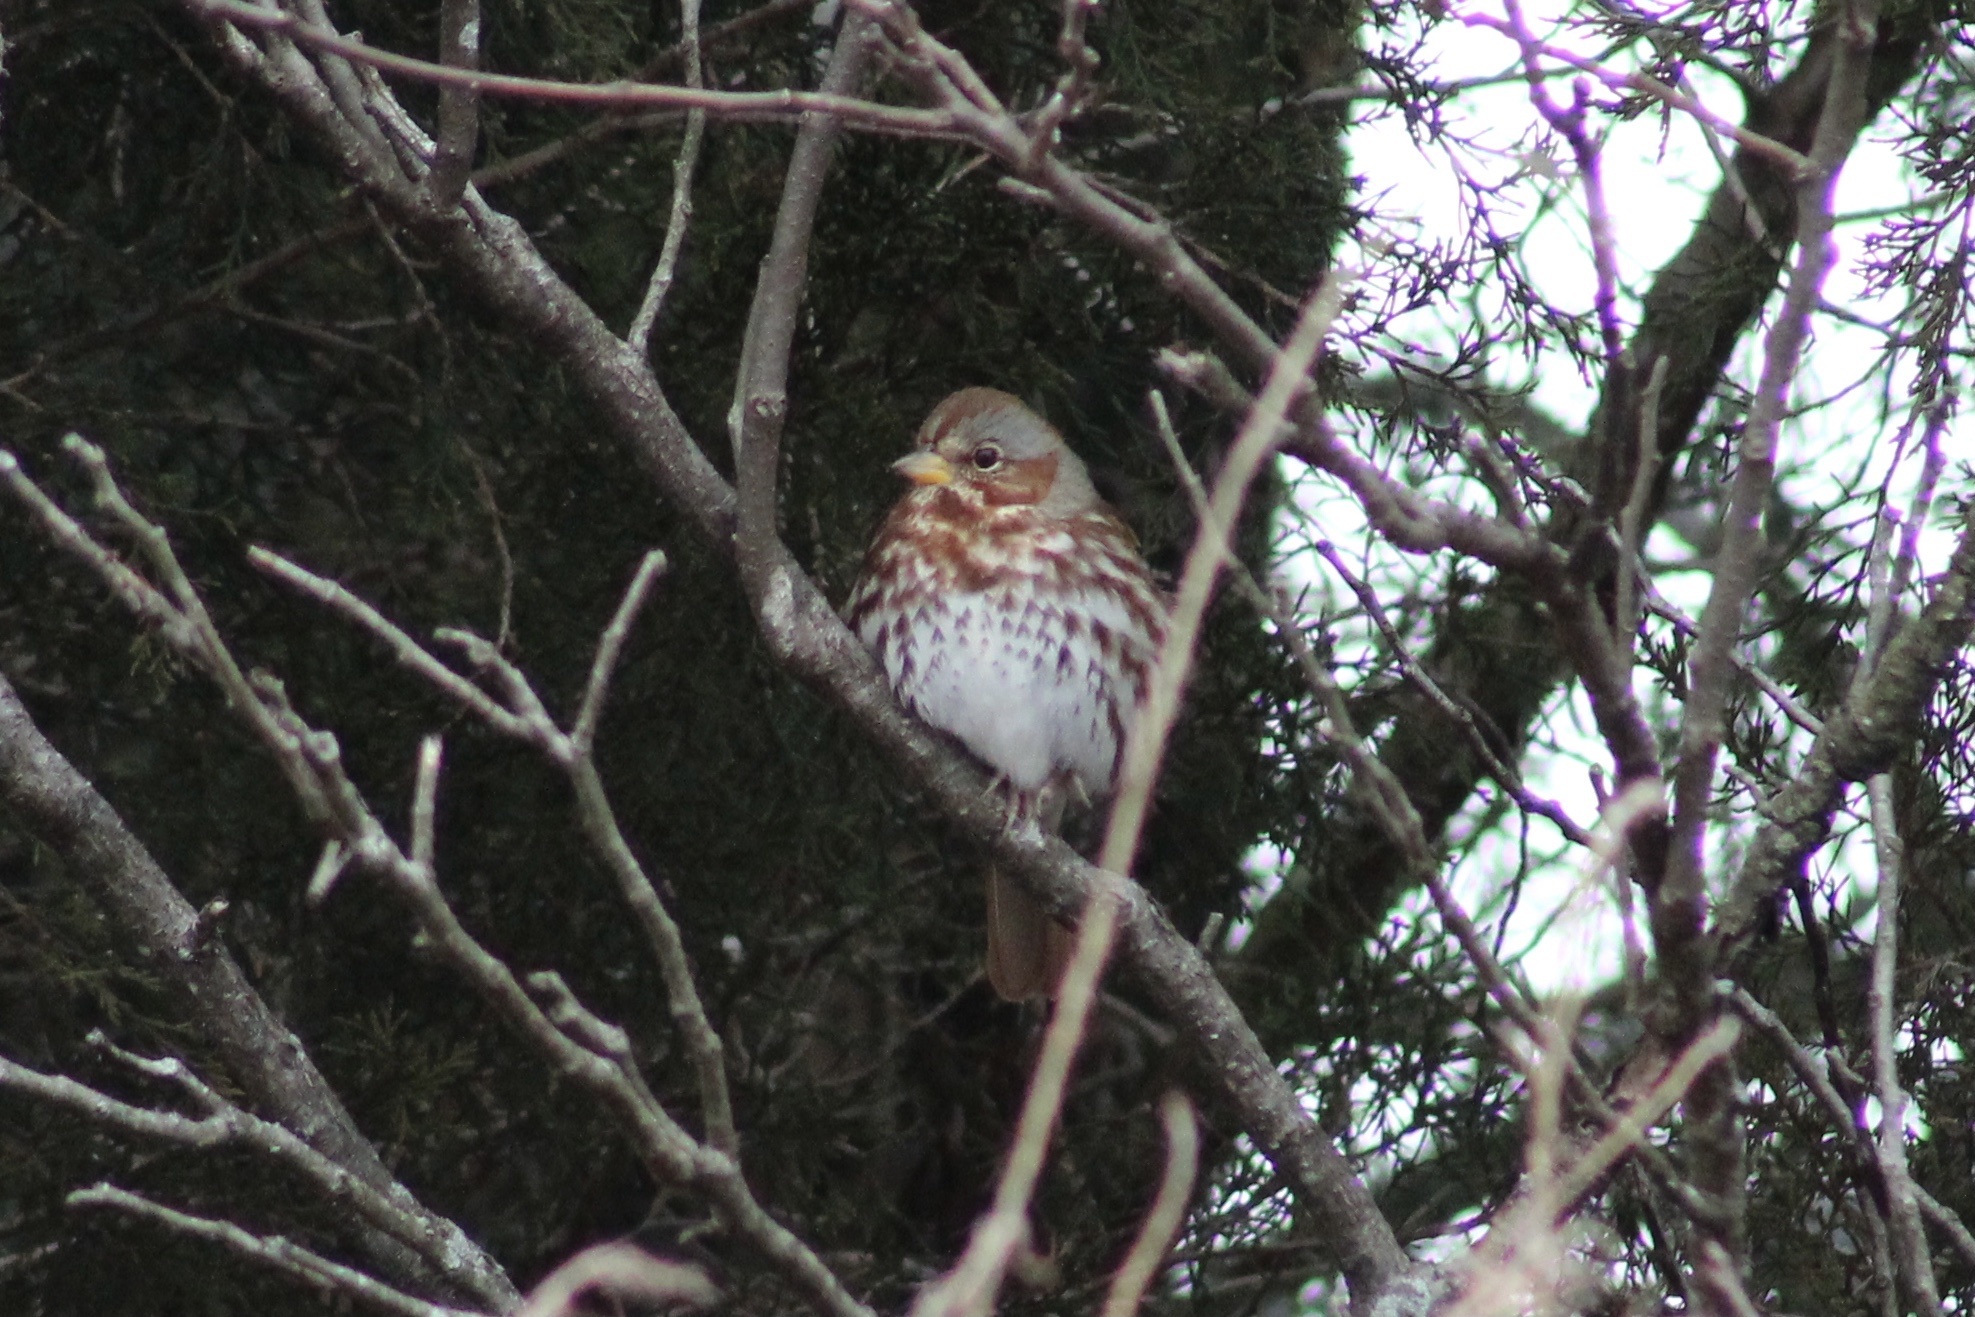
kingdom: Animalia
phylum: Chordata
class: Aves
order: Passeriformes
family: Passerellidae
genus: Passerella
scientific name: Passerella iliaca
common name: Fox sparrow
